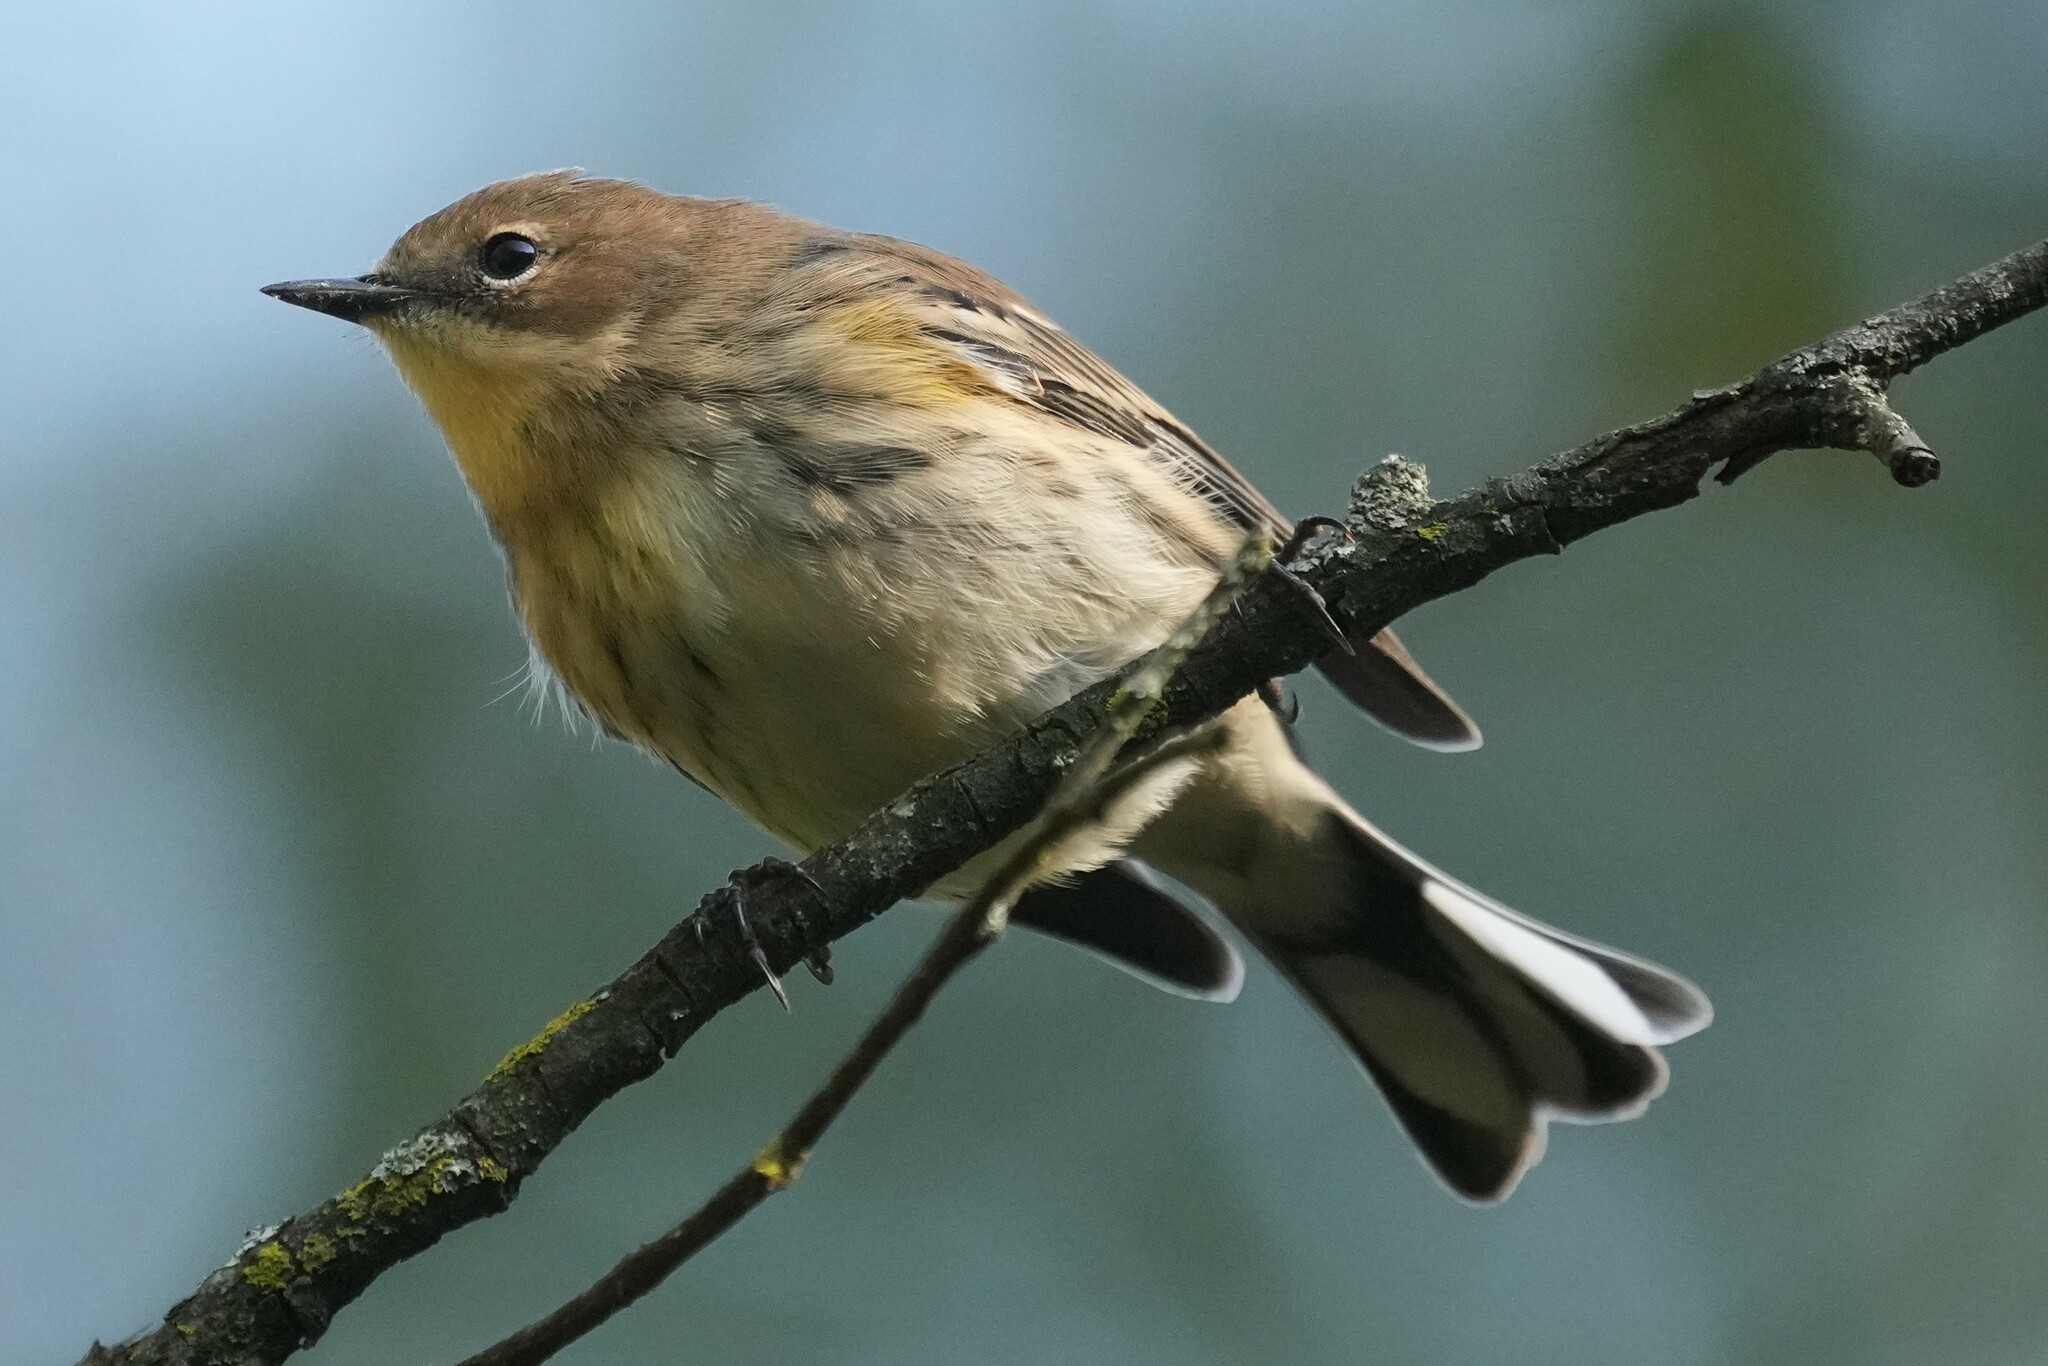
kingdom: Animalia
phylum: Chordata
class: Aves
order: Passeriformes
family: Parulidae
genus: Setophaga
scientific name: Setophaga coronata
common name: Myrtle warbler
